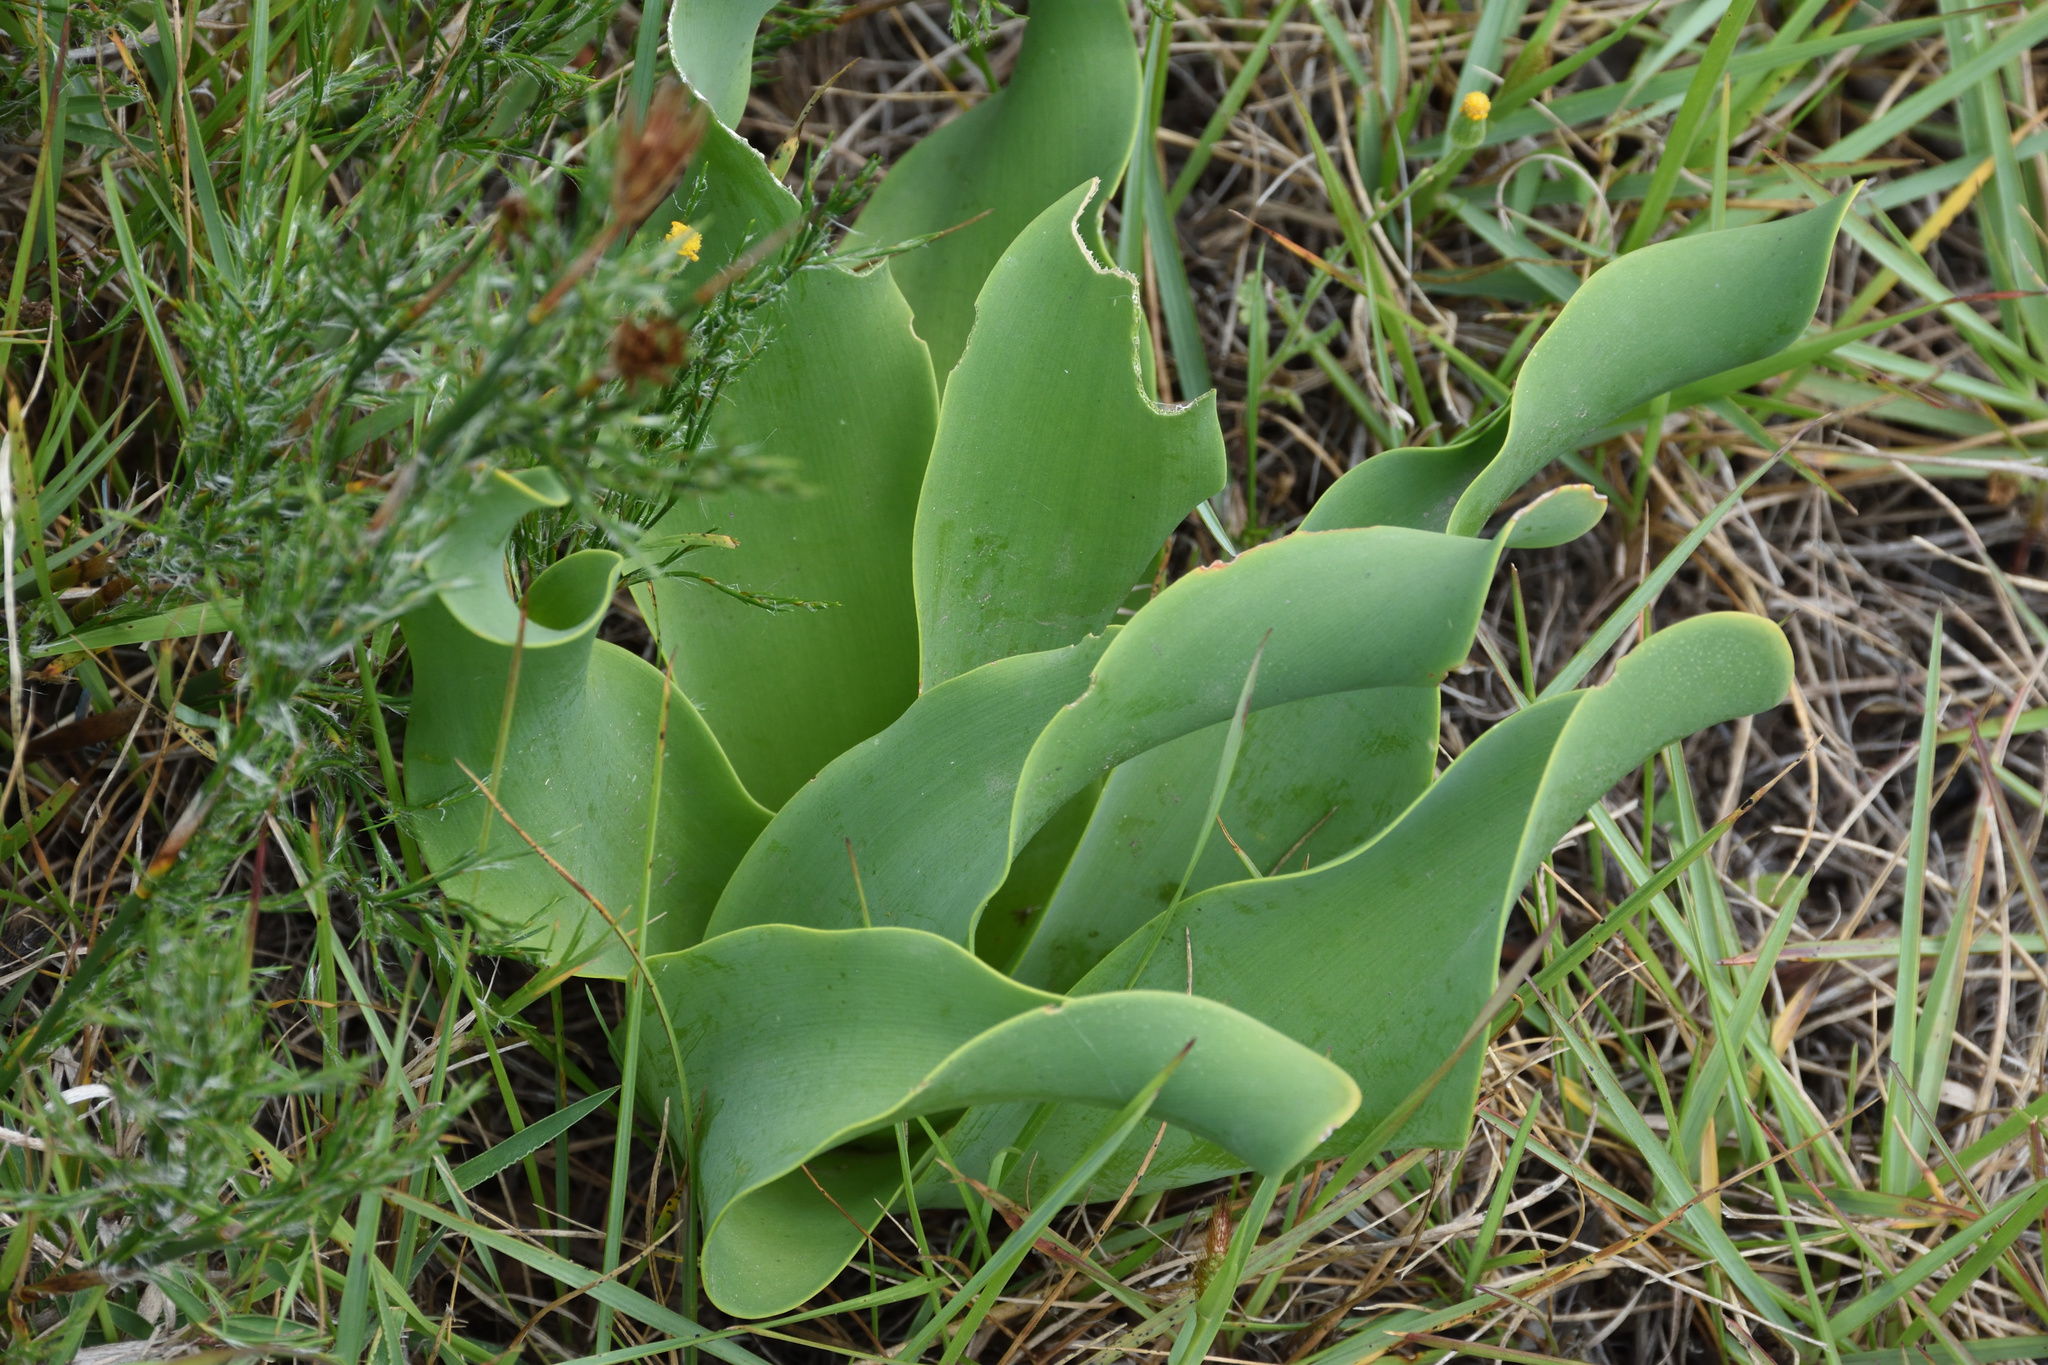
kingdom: Plantae
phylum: Tracheophyta
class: Liliopsida
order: Asparagales
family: Amaryllidaceae
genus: Brunsvigia
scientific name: Brunsvigia litoralis
